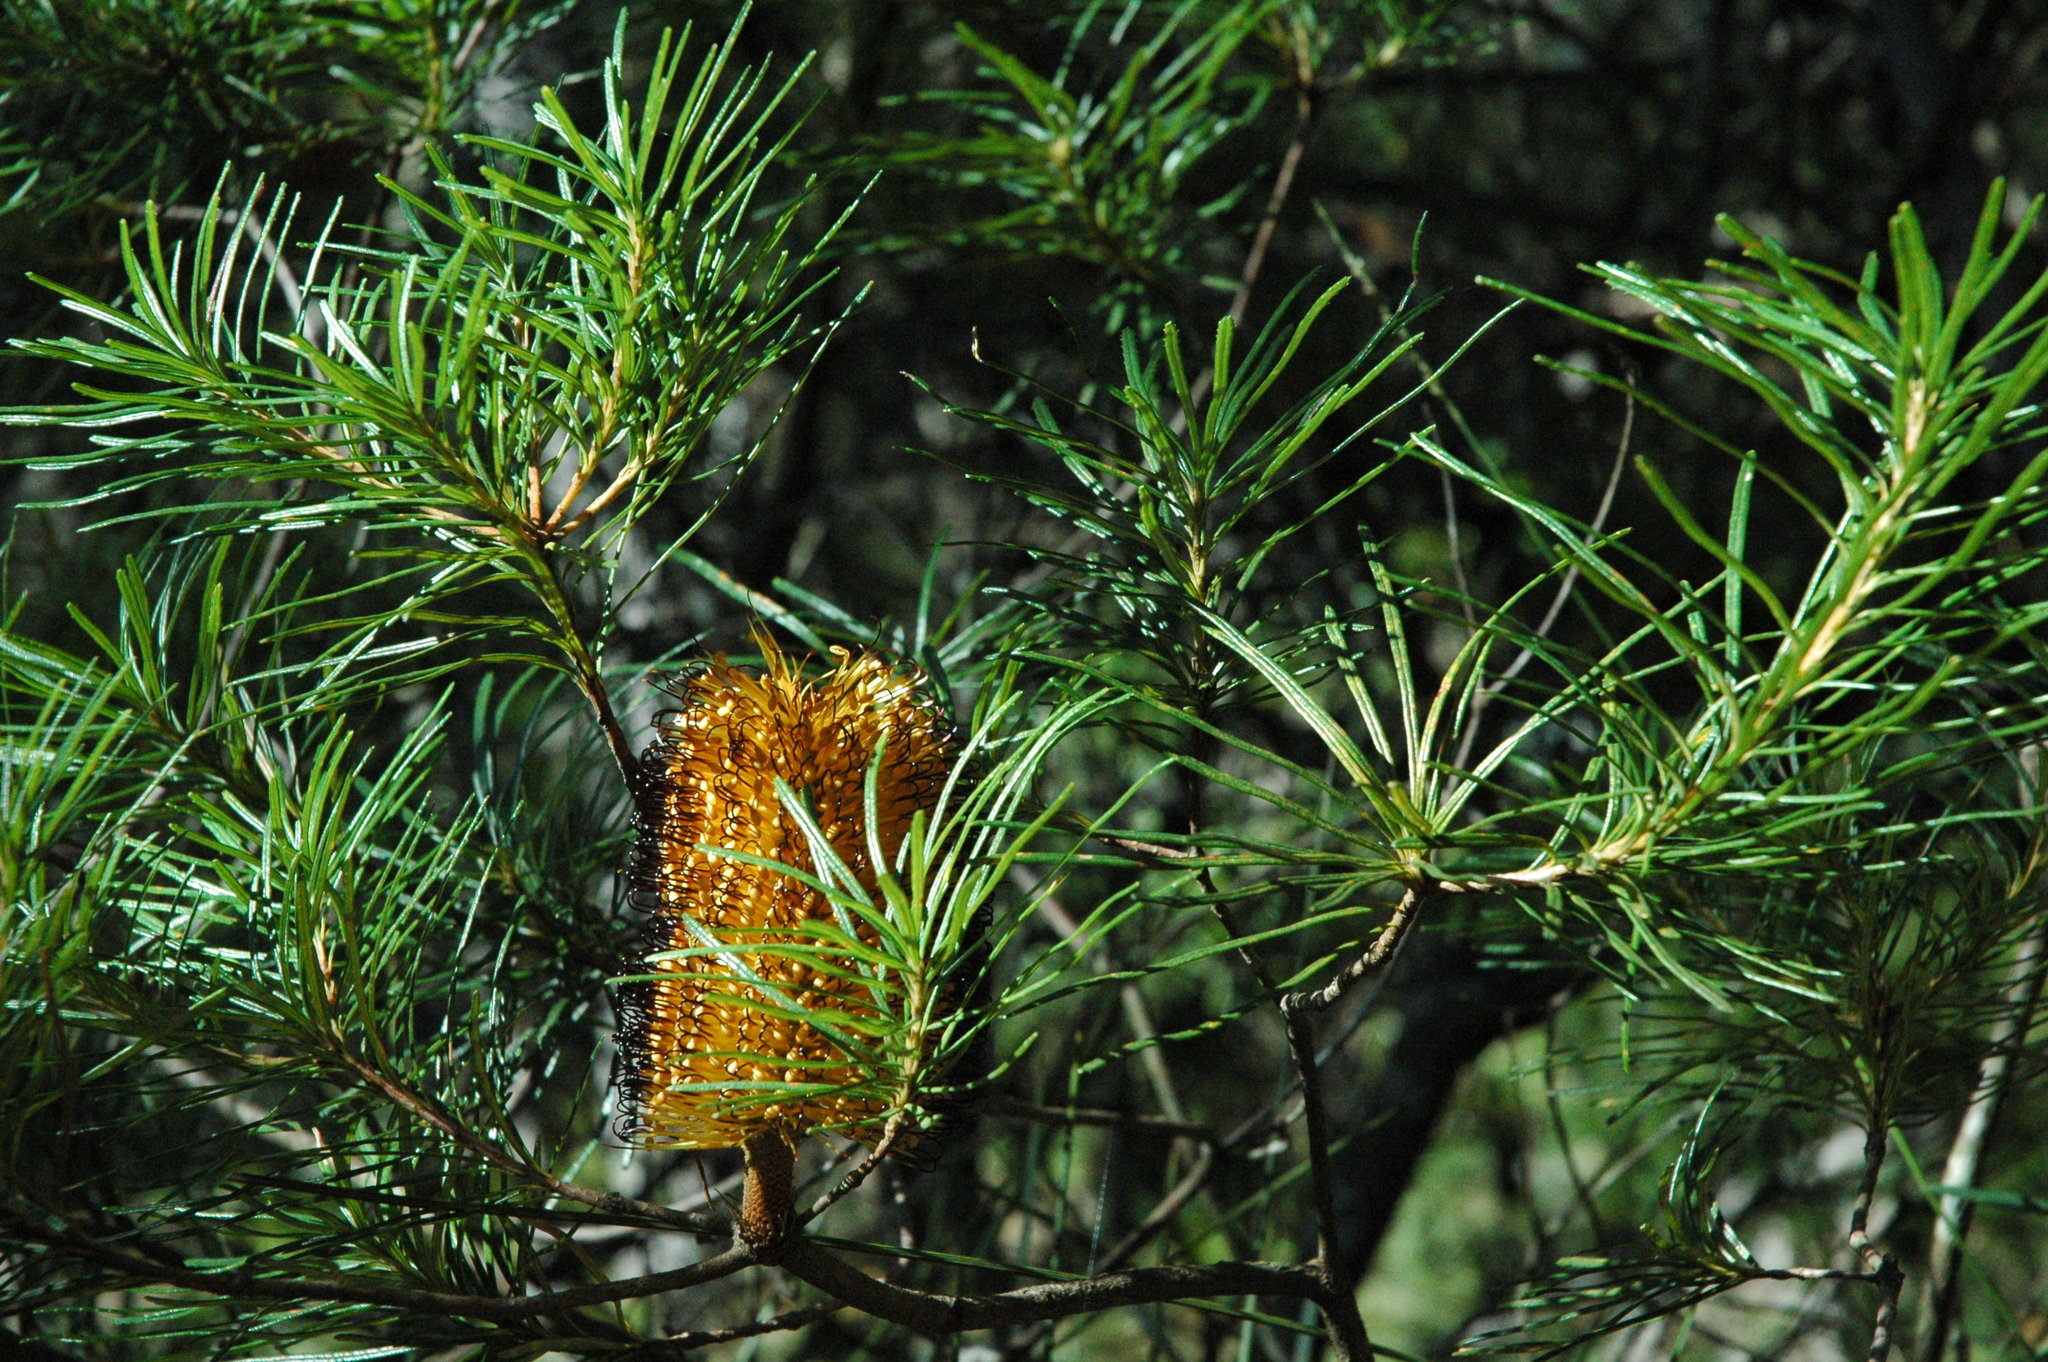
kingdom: Plantae
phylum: Tracheophyta
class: Magnoliopsida
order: Proteales
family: Proteaceae
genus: Banksia
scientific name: Banksia spinulosa
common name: Hairpin banksia
